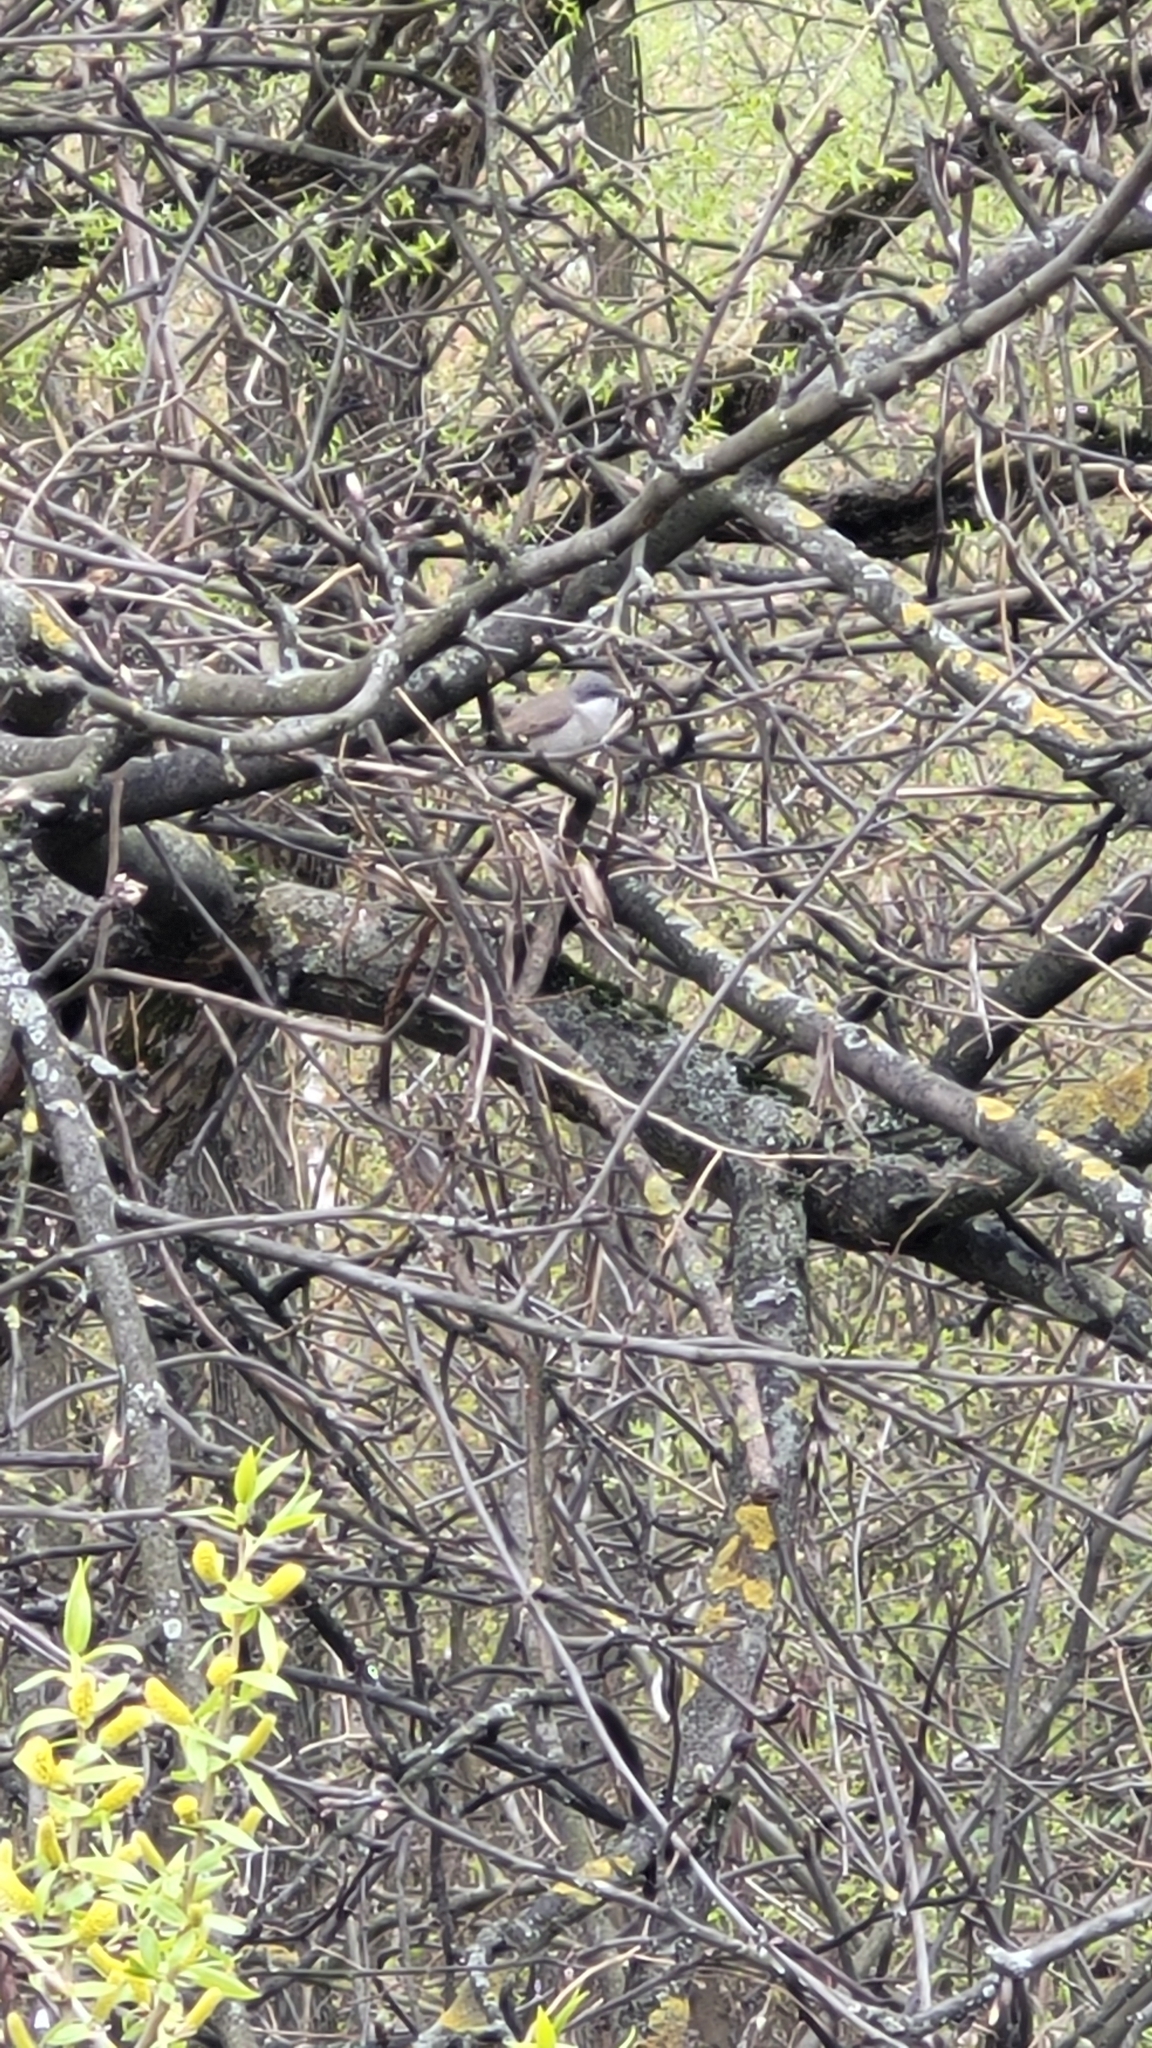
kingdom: Animalia
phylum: Chordata
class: Aves
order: Passeriformes
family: Sylviidae
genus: Sylvia
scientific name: Sylvia curruca
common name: Lesser whitethroat
